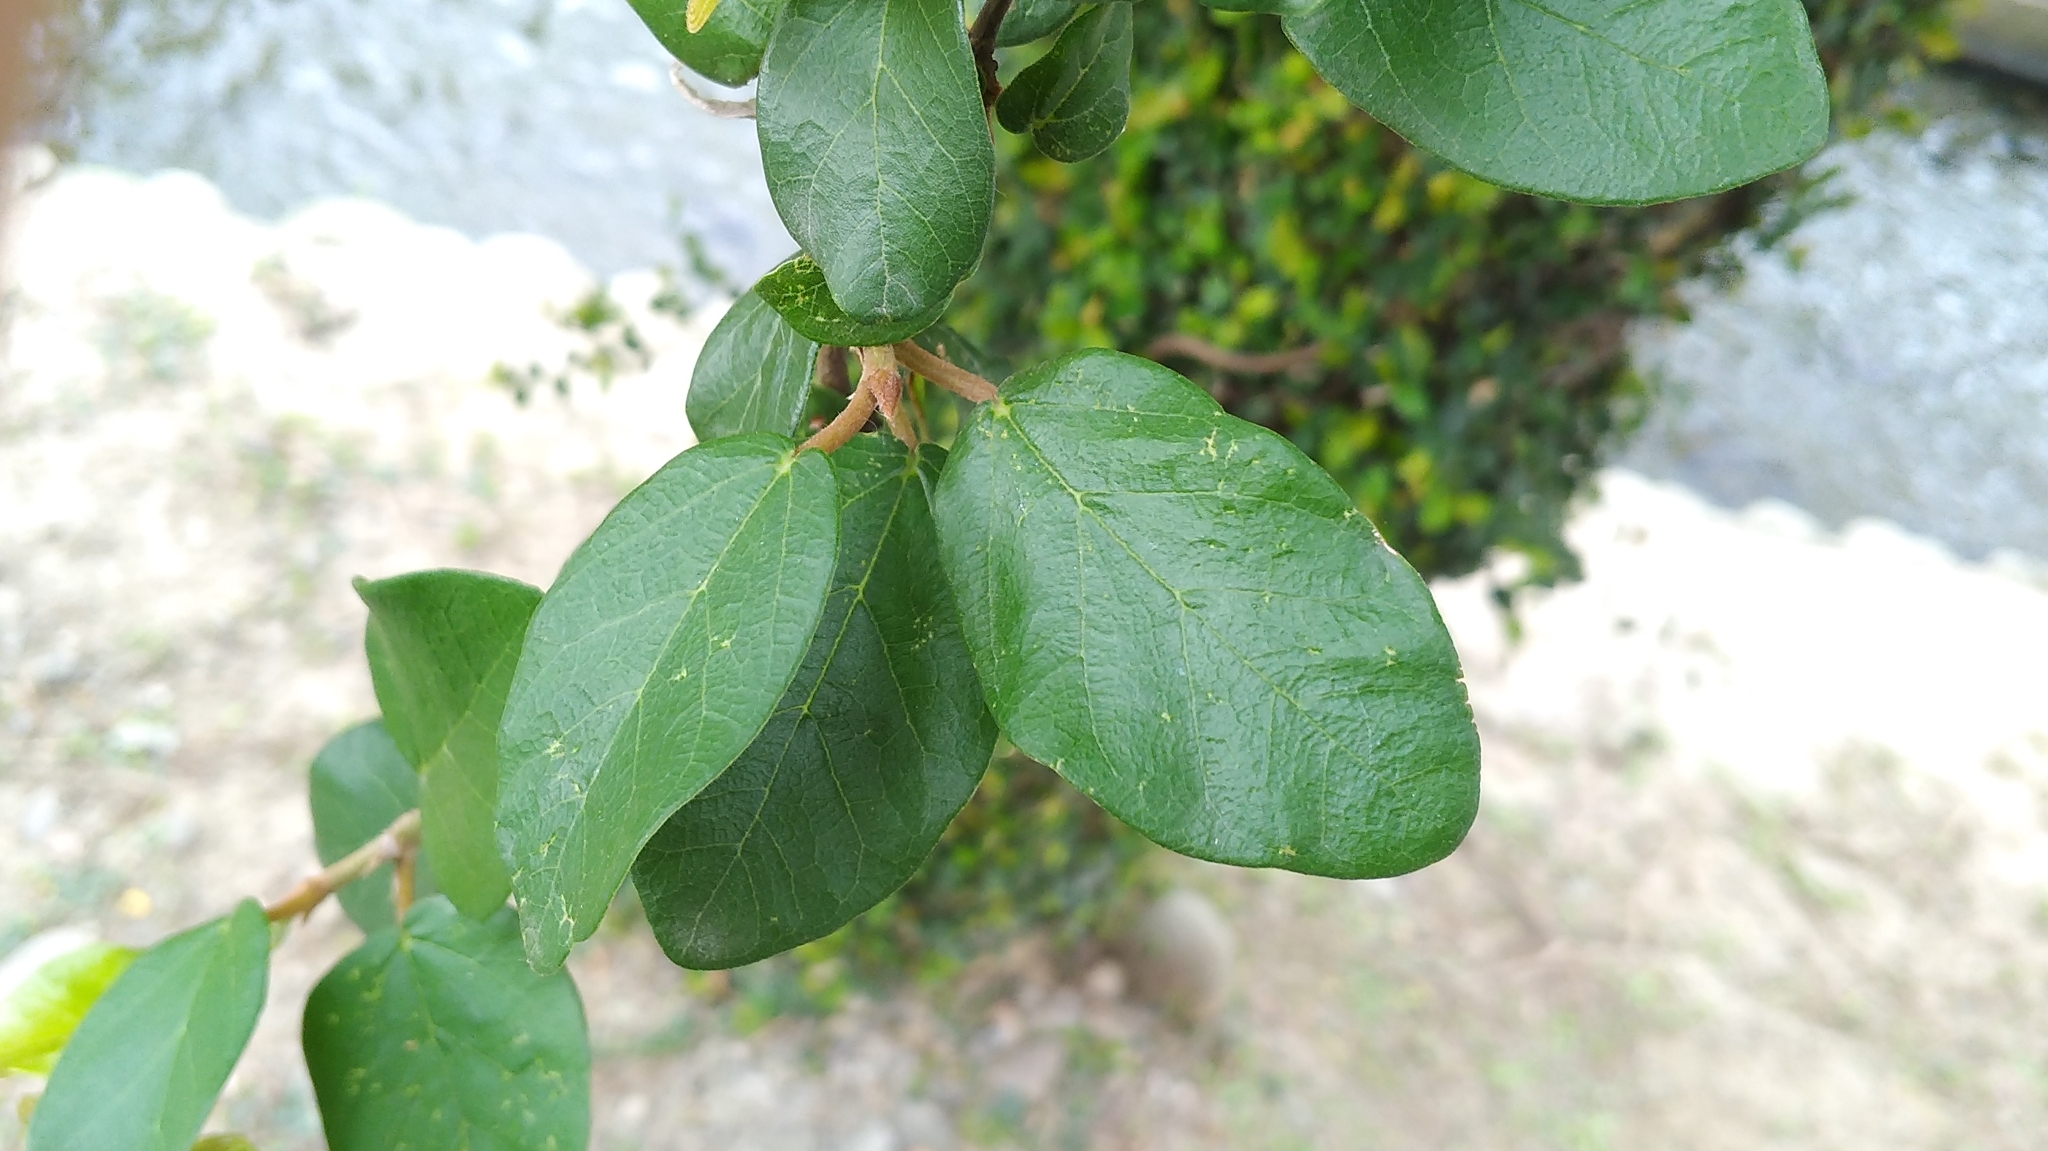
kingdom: Plantae
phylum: Tracheophyta
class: Magnoliopsida
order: Rosales
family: Moraceae
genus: Ficus
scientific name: Ficus pumila
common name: Climbingfig
